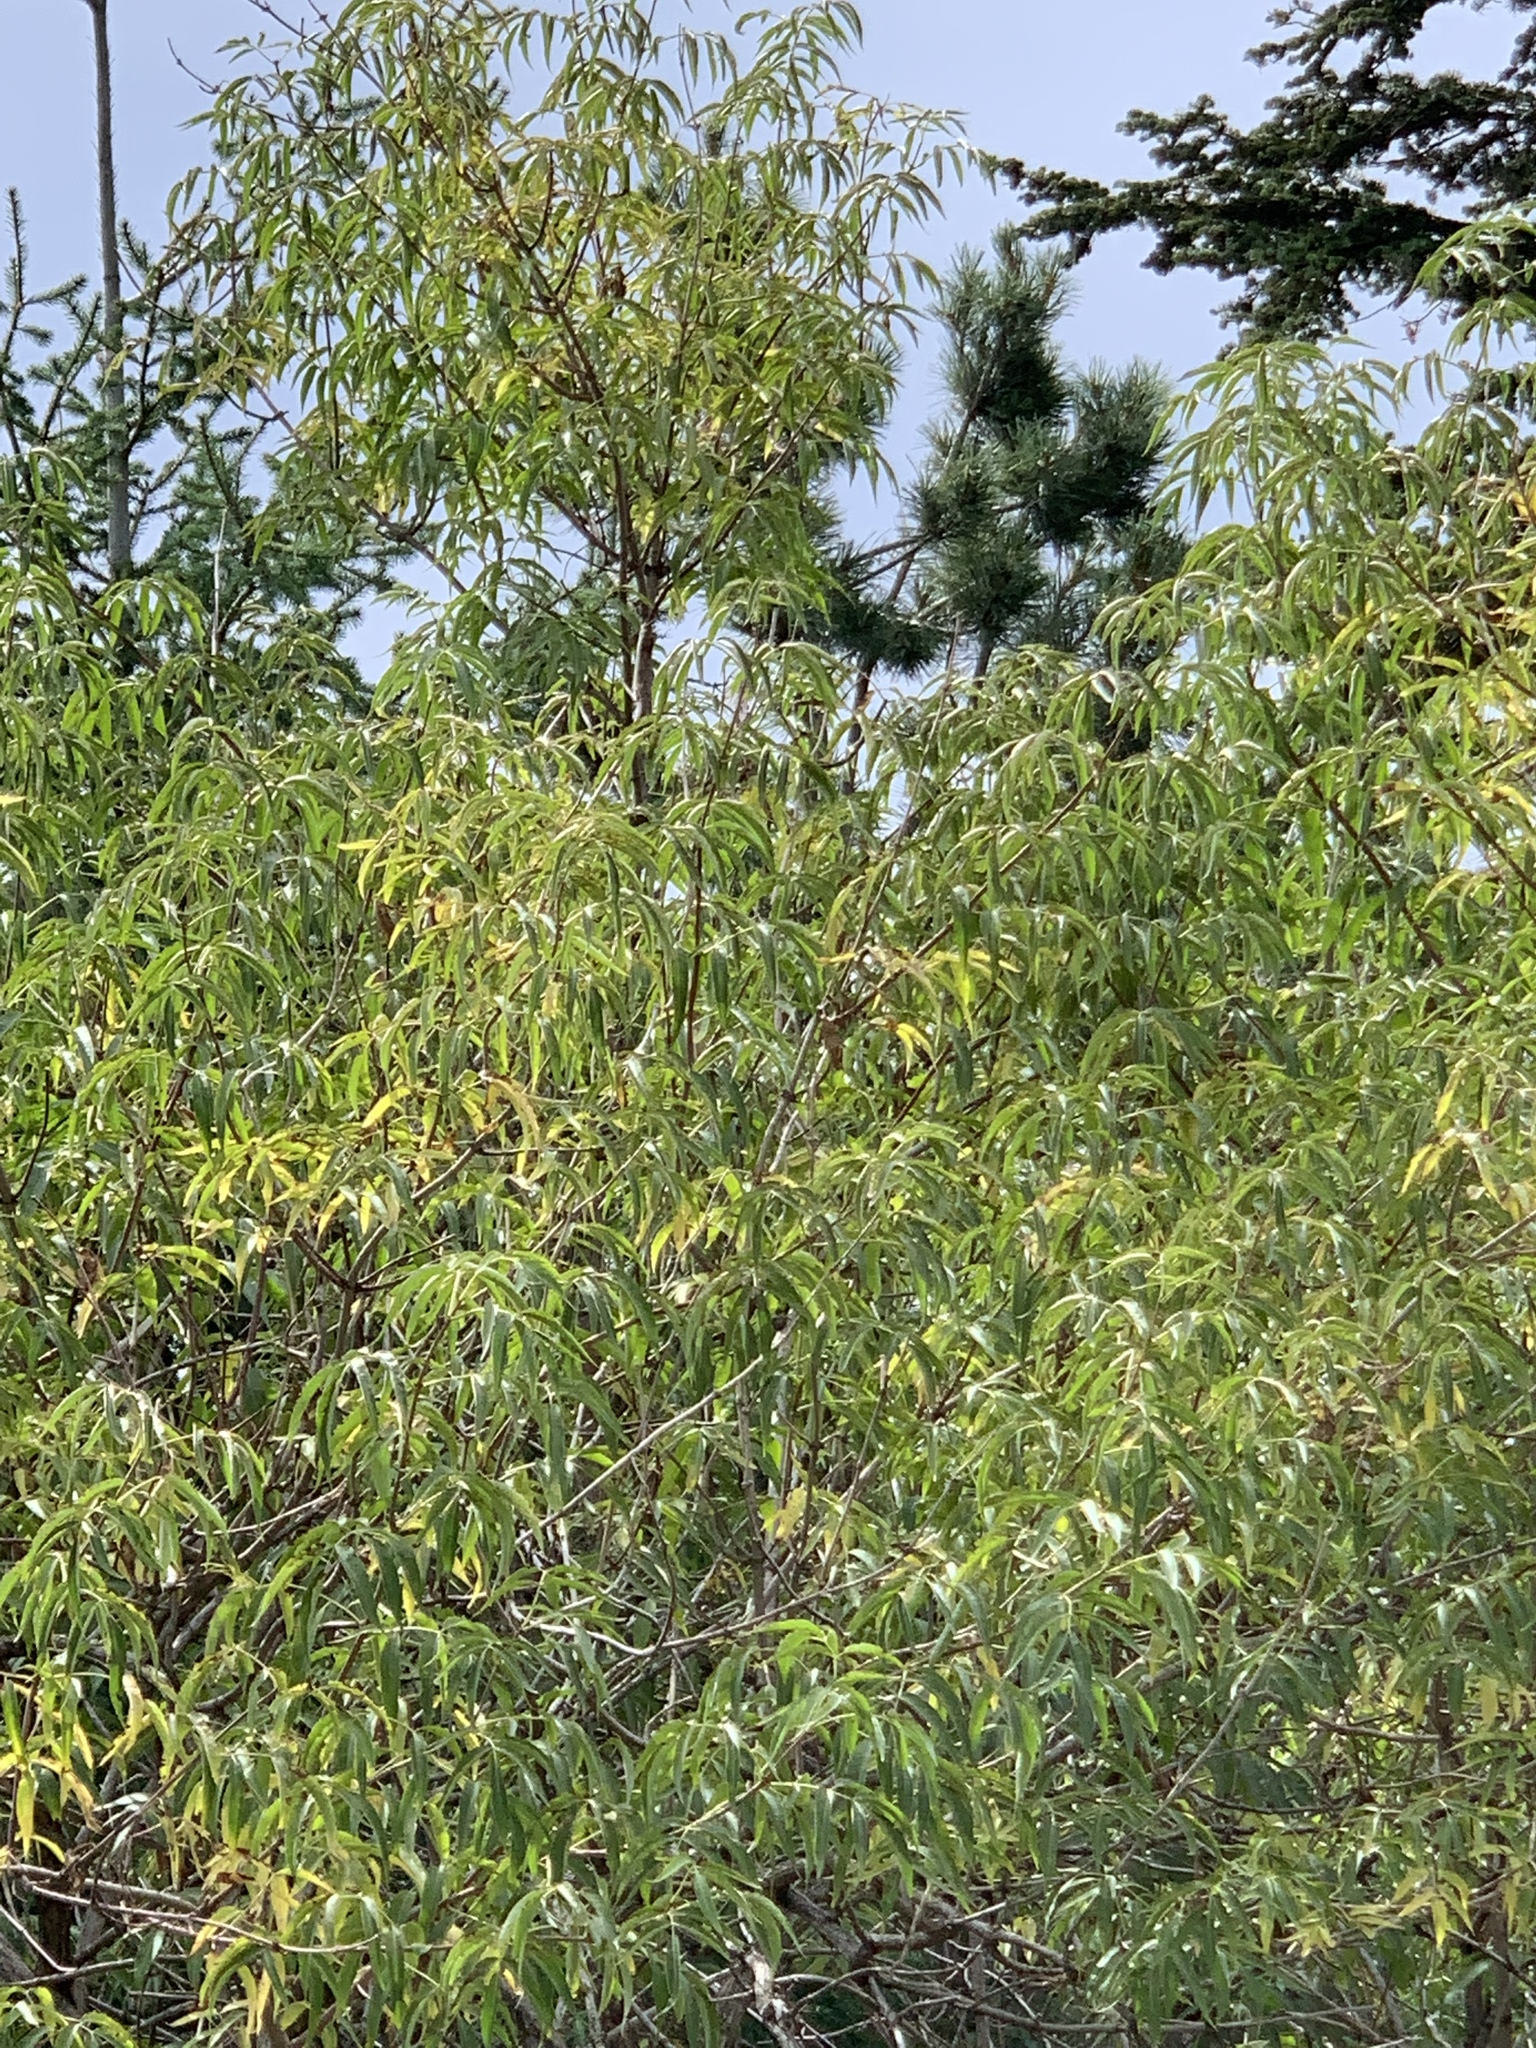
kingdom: Plantae
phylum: Tracheophyta
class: Magnoliopsida
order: Dipsacales
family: Viburnaceae
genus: Sambucus
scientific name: Sambucus cerulea
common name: Blue elder
